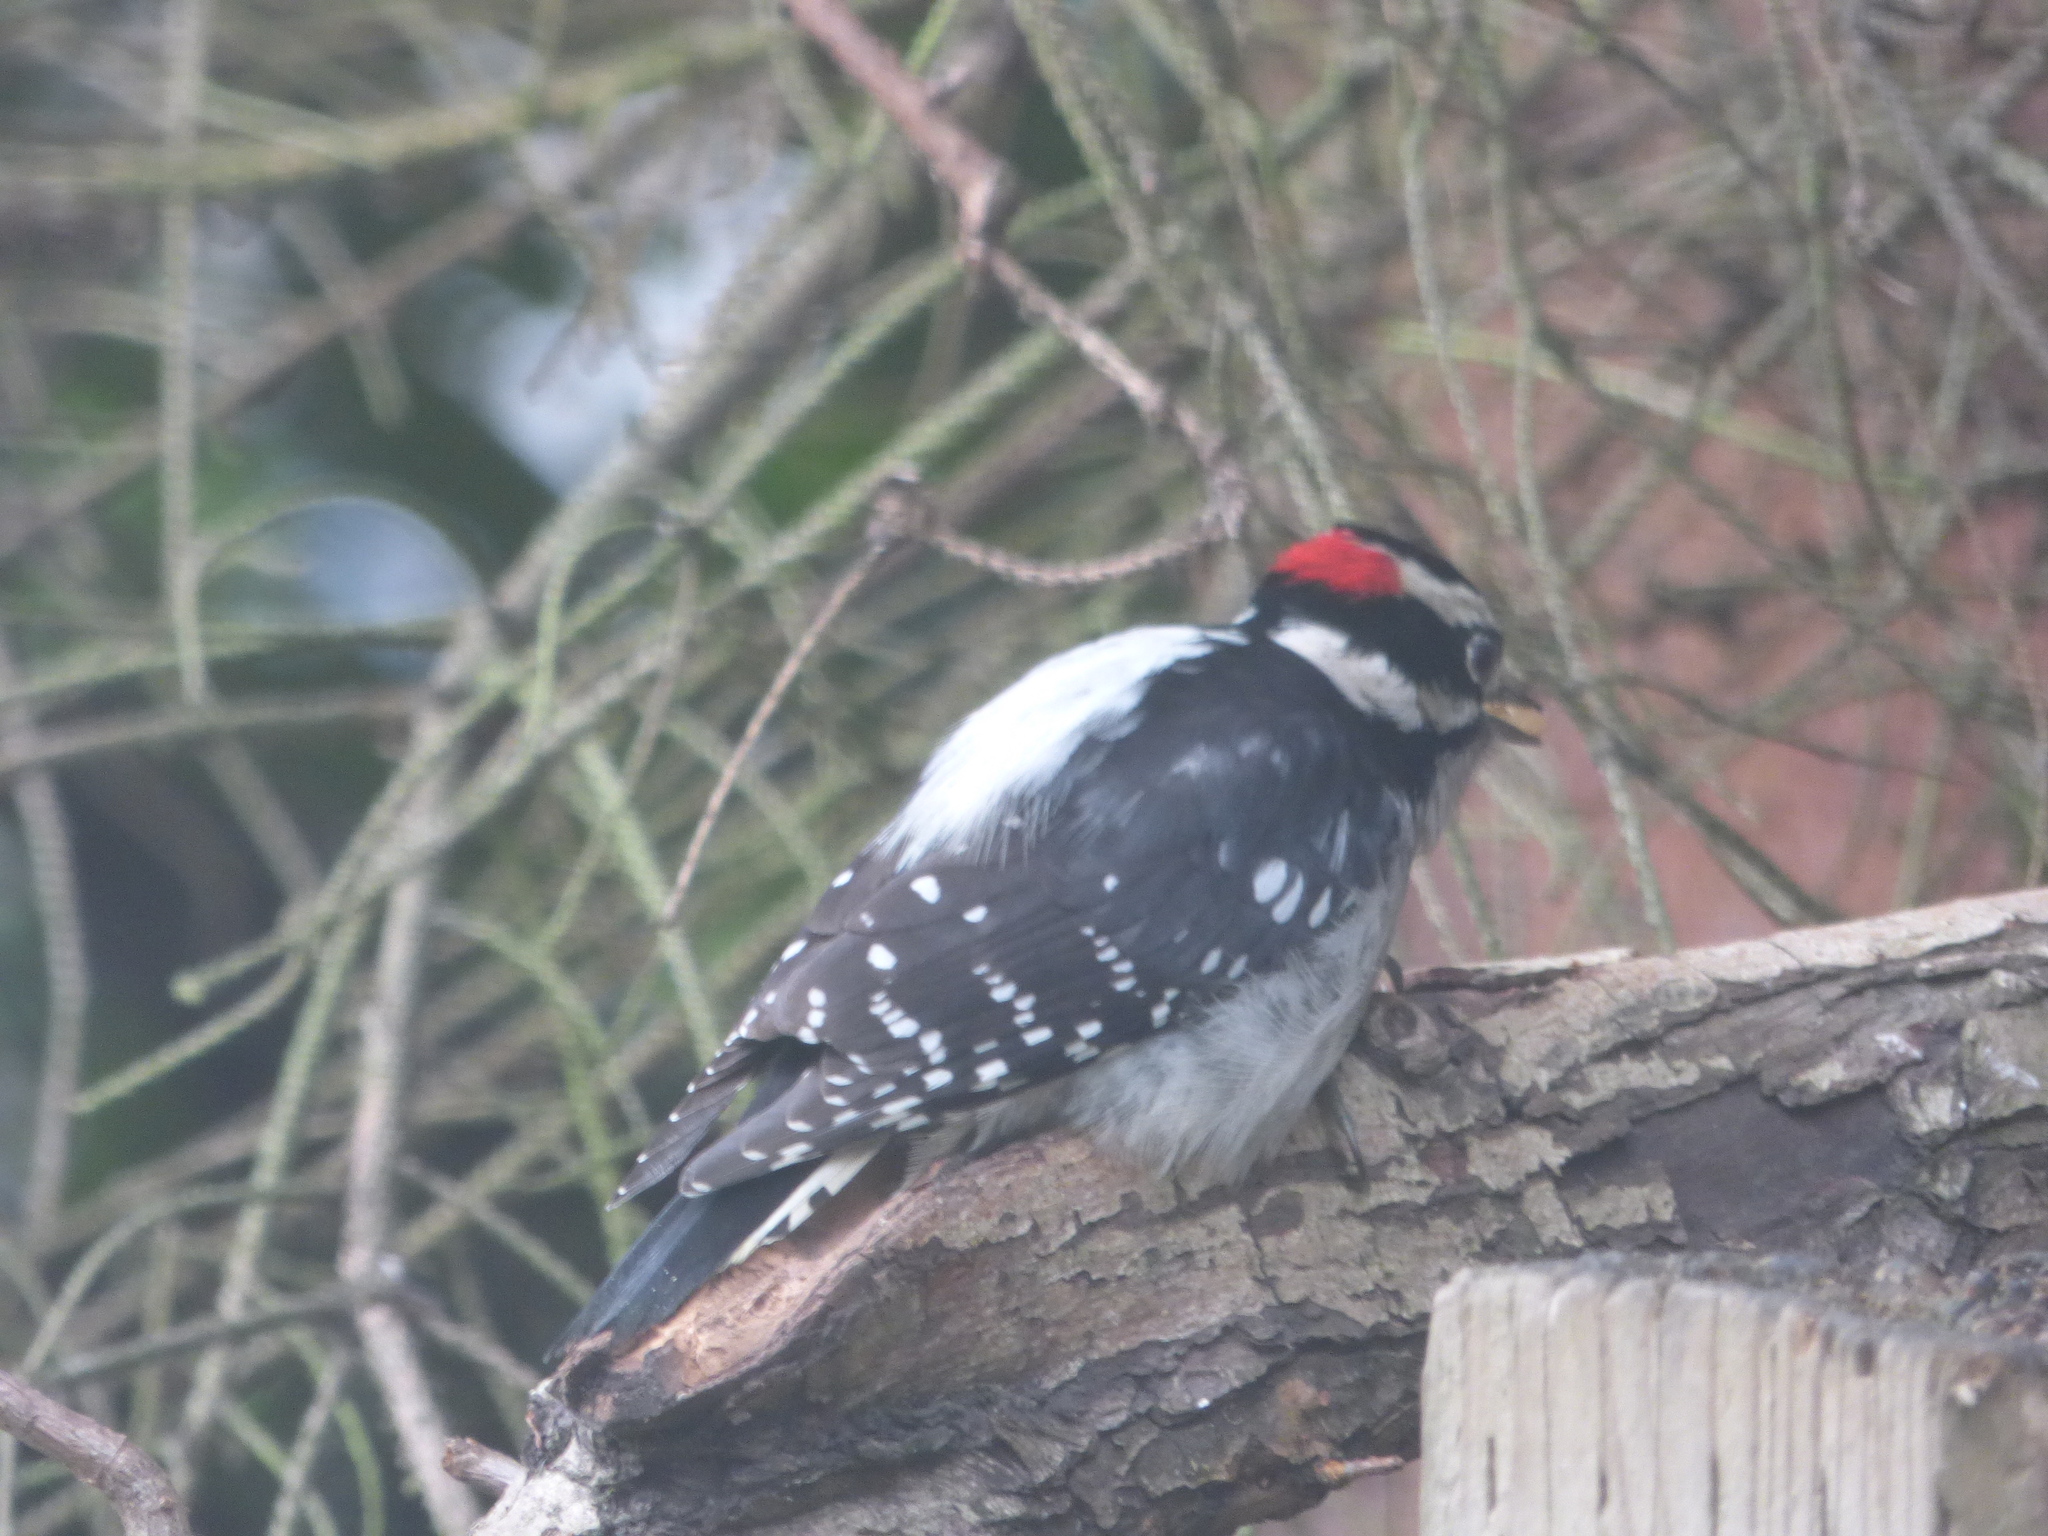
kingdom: Animalia
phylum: Chordata
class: Aves
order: Piciformes
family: Picidae
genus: Dryobates
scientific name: Dryobates pubescens
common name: Downy woodpecker
